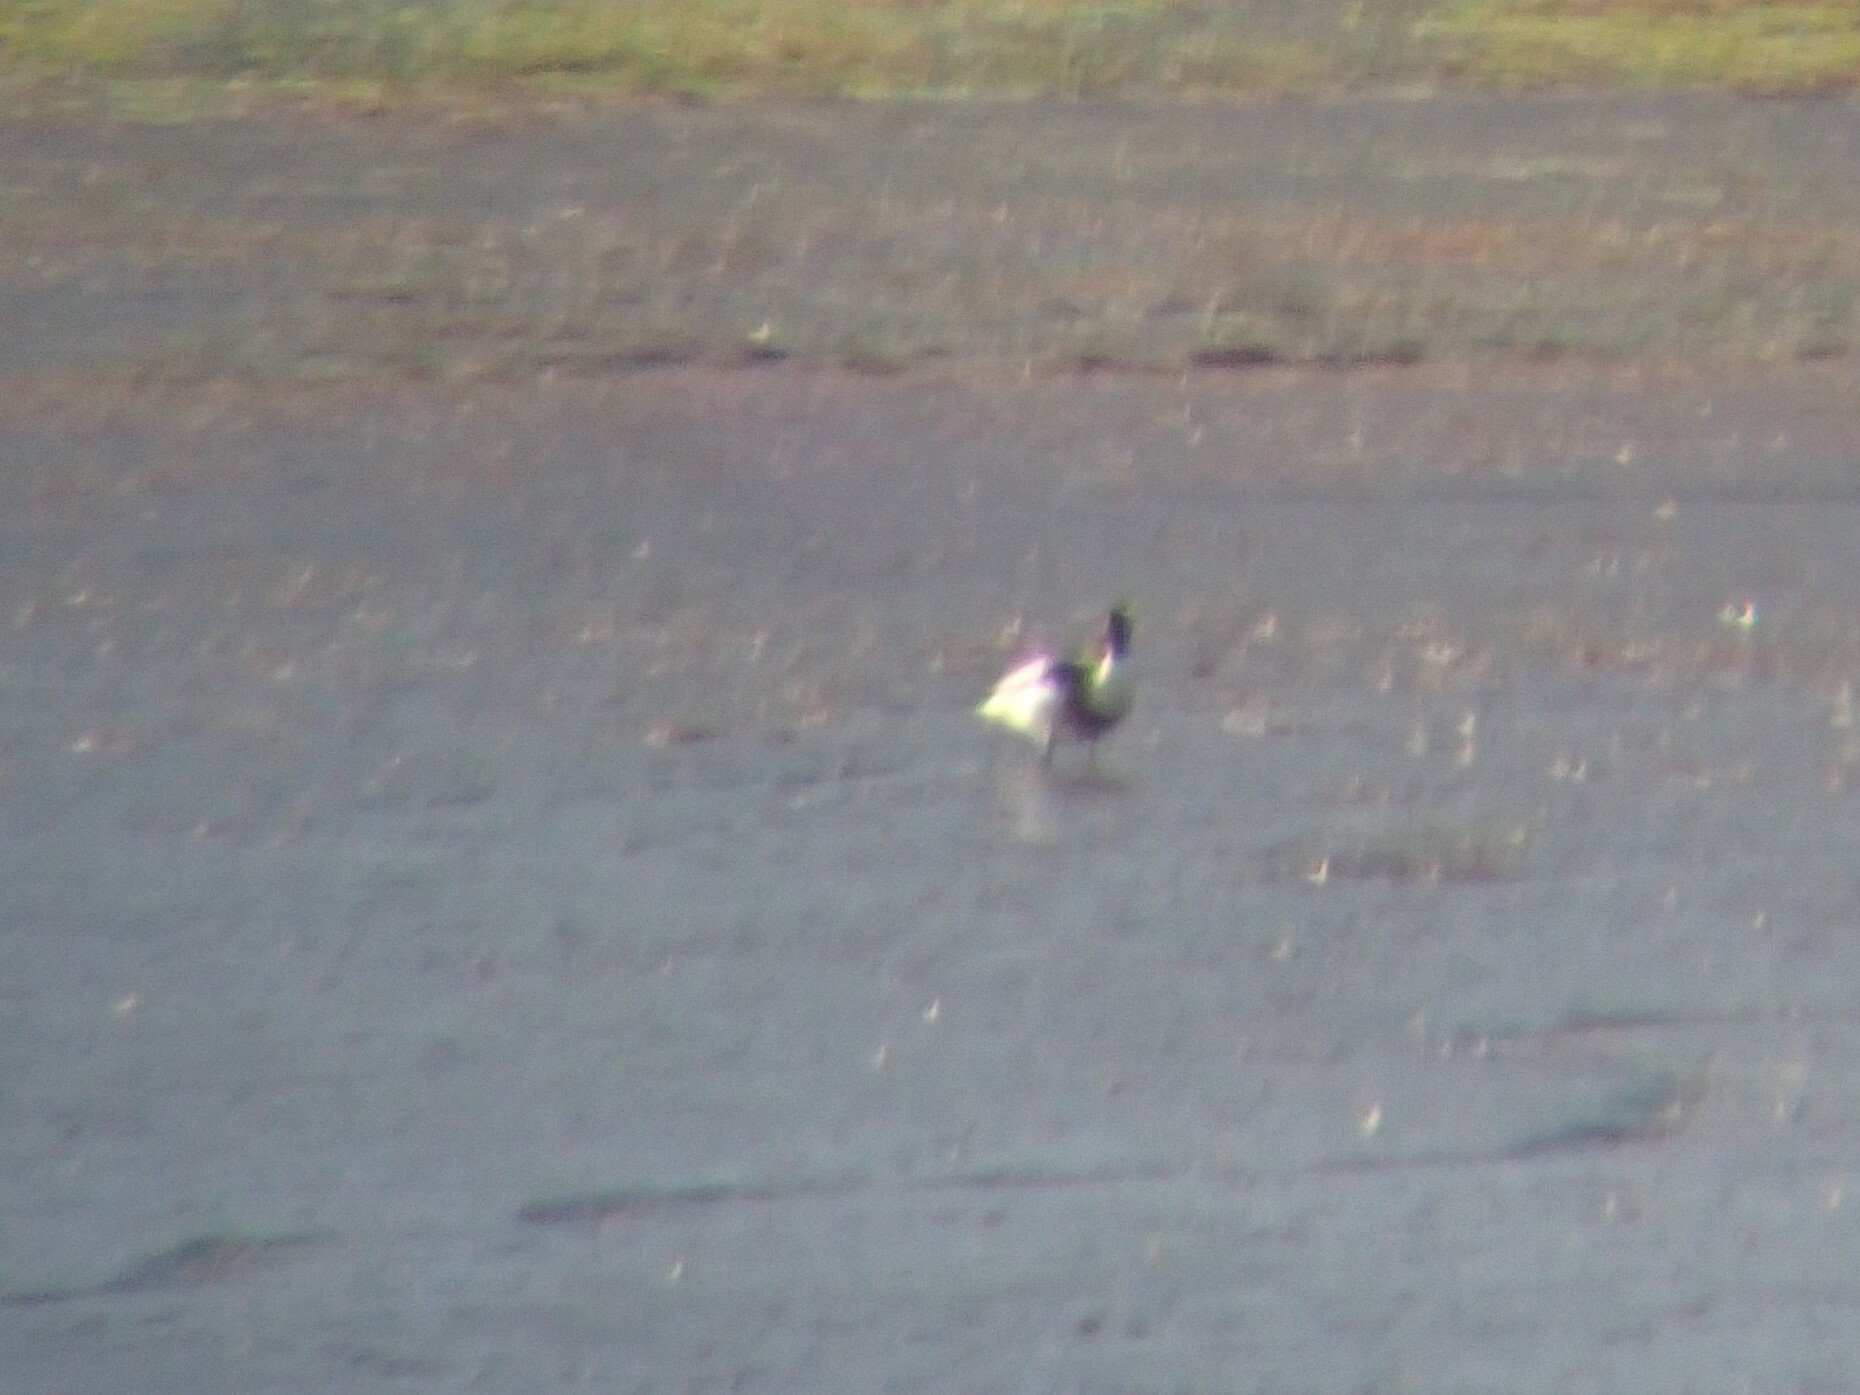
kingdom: Animalia
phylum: Chordata
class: Aves
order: Anseriformes
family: Anatidae
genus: Tadorna
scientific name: Tadorna tadorna
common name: Common shelduck
